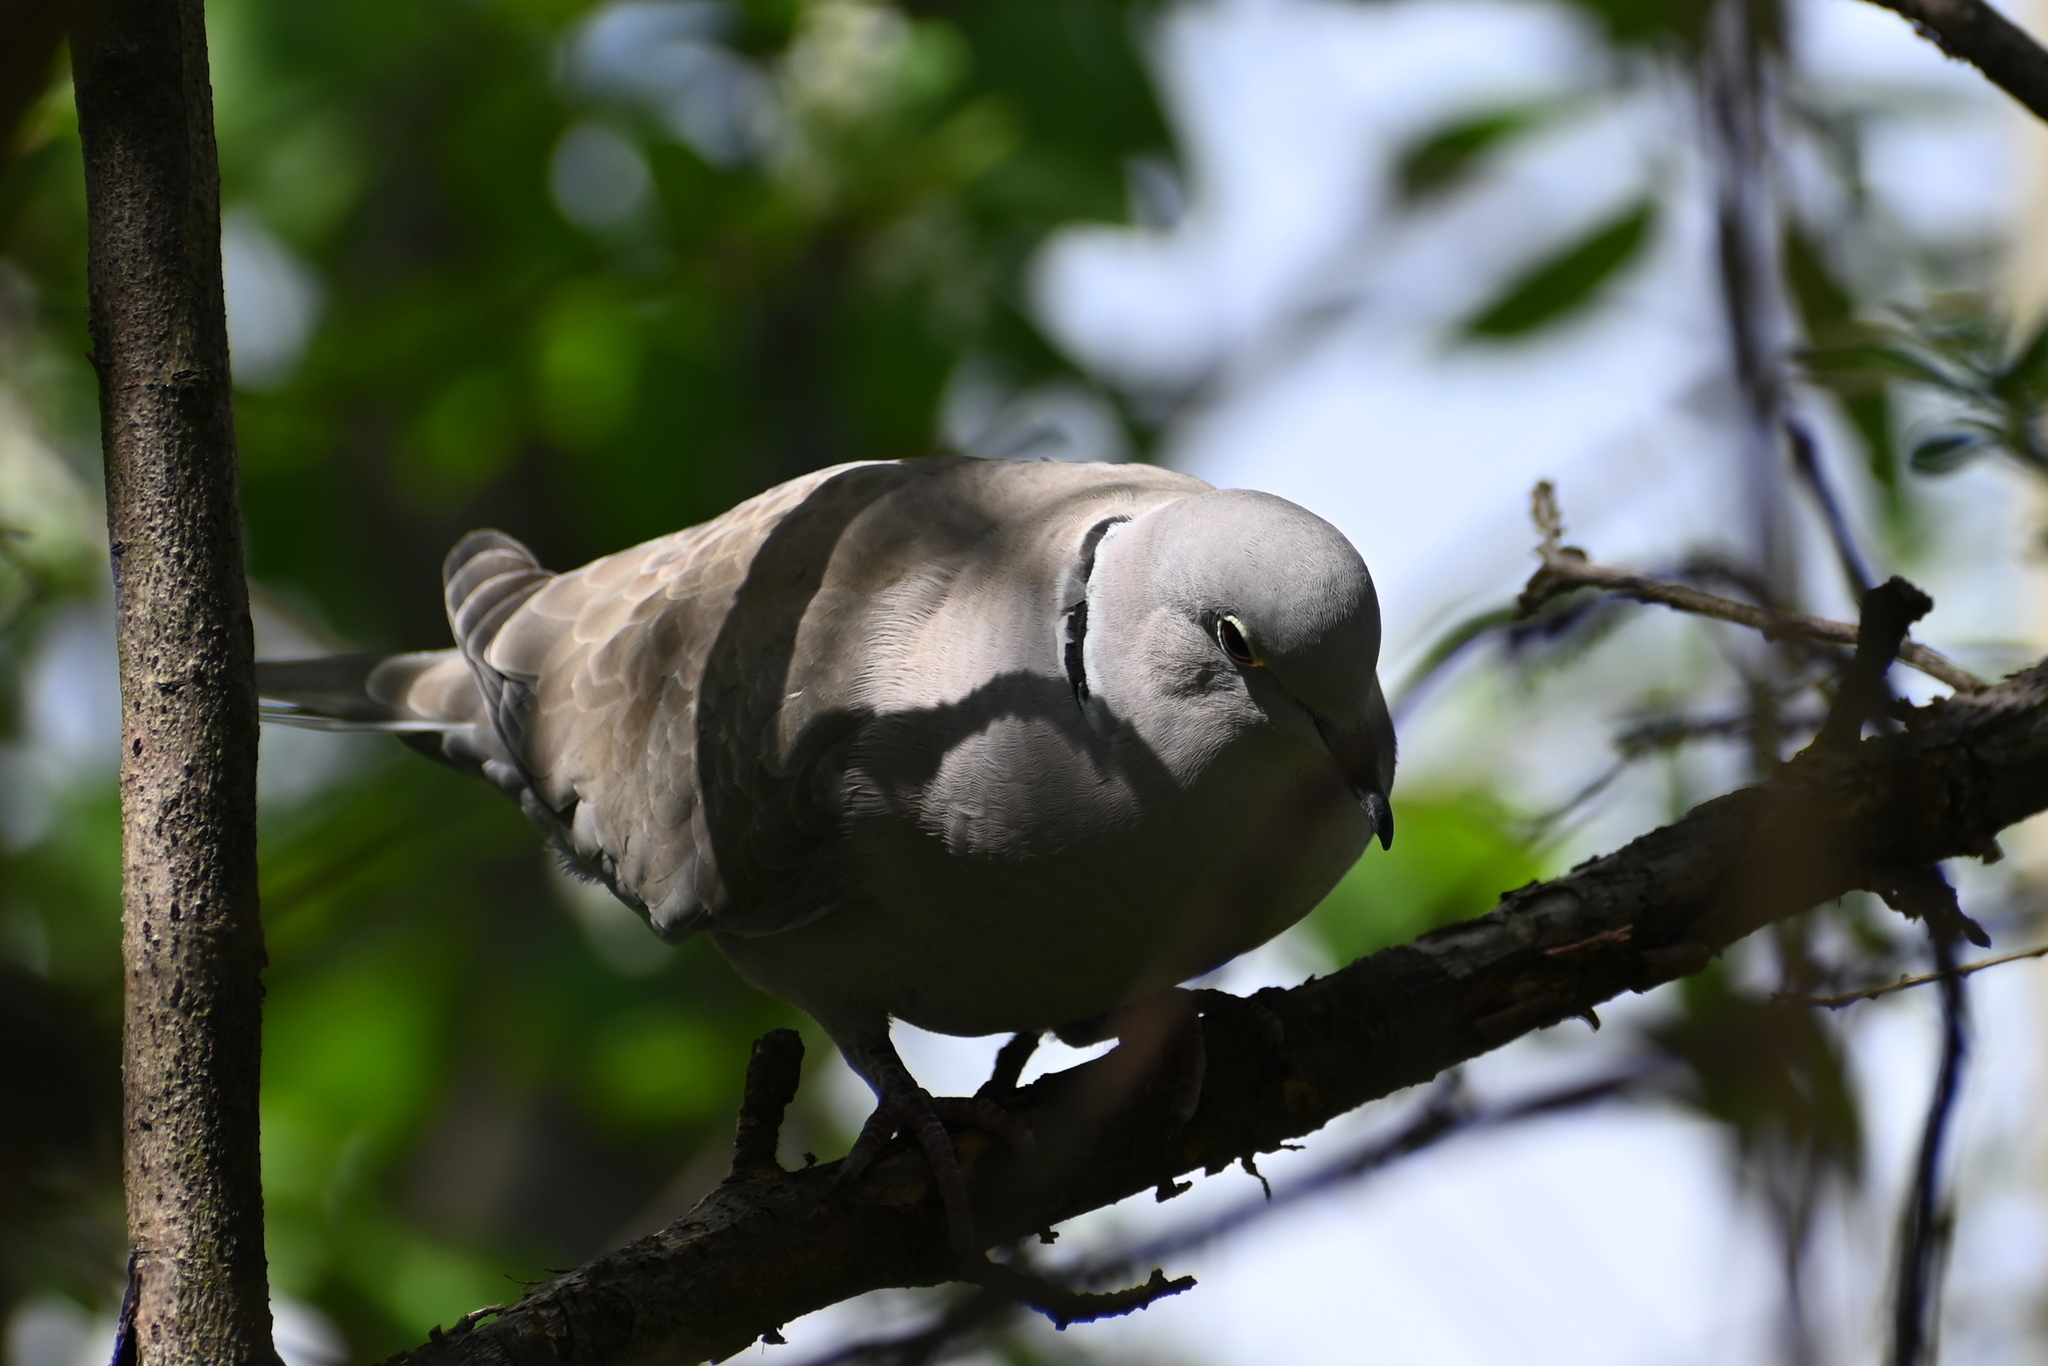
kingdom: Animalia
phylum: Chordata
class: Aves
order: Columbiformes
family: Columbidae
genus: Streptopelia
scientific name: Streptopelia decaocto
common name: Eurasian collared dove
